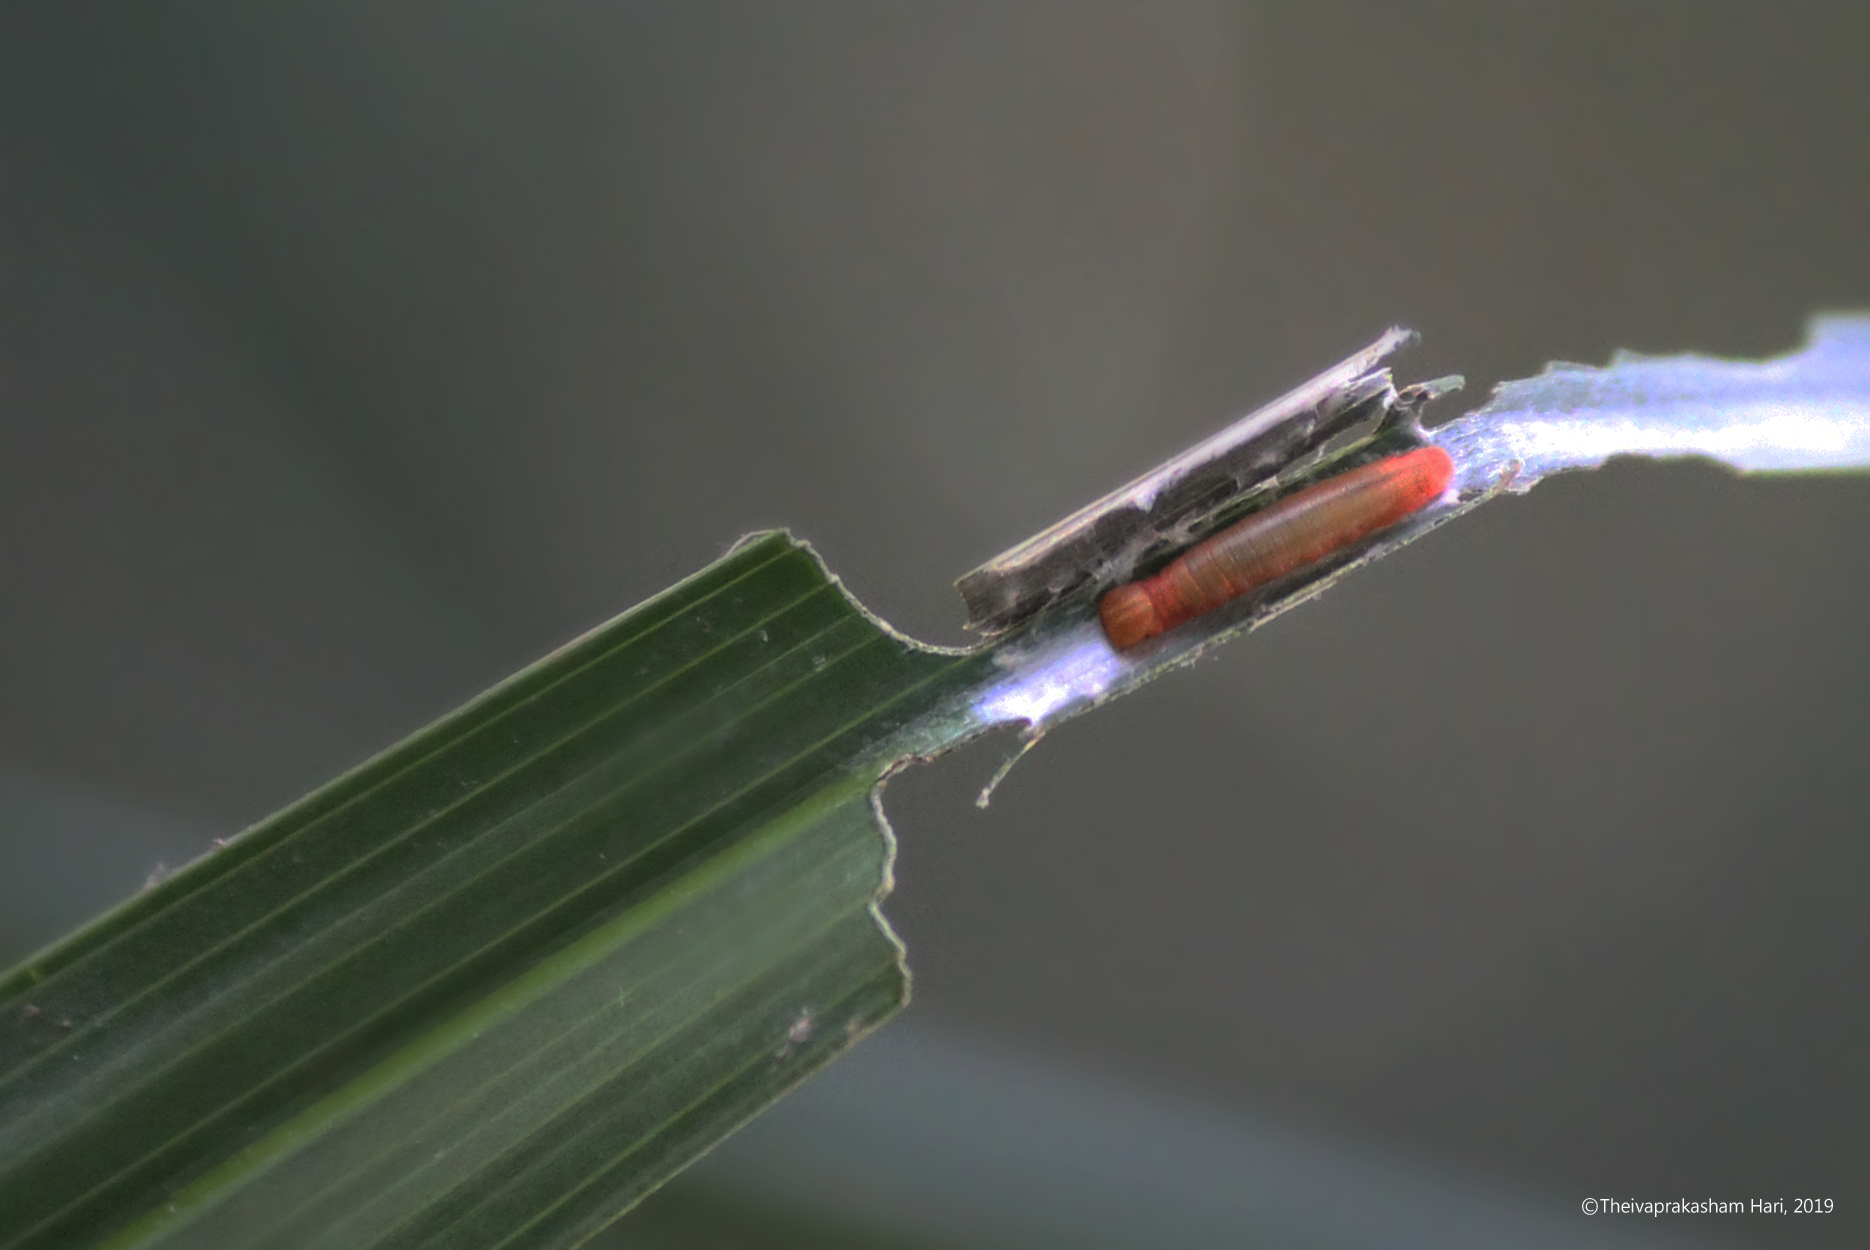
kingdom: Animalia
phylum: Arthropoda
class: Insecta
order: Lepidoptera
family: Hesperiidae
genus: Suastus
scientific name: Suastus gremius
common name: Indian palm bob
